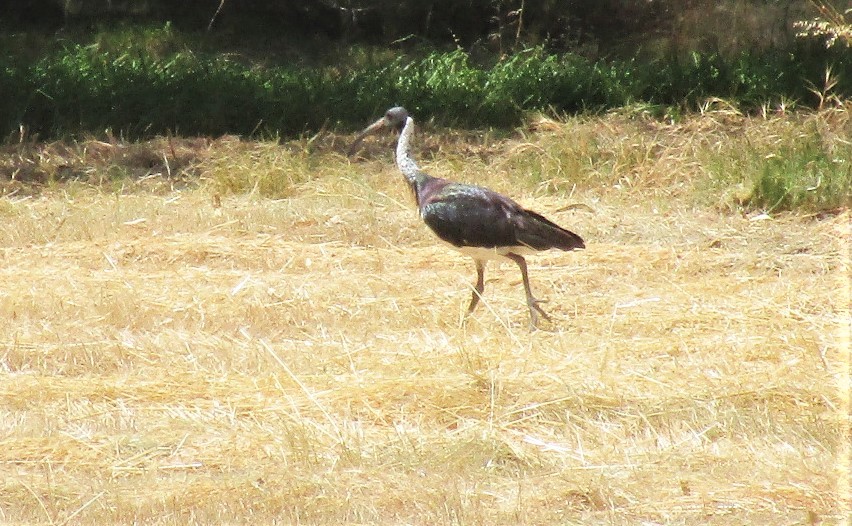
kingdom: Animalia
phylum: Chordata
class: Aves
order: Pelecaniformes
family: Threskiornithidae
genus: Threskiornis
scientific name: Threskiornis spinicollis
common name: Straw-necked ibis
